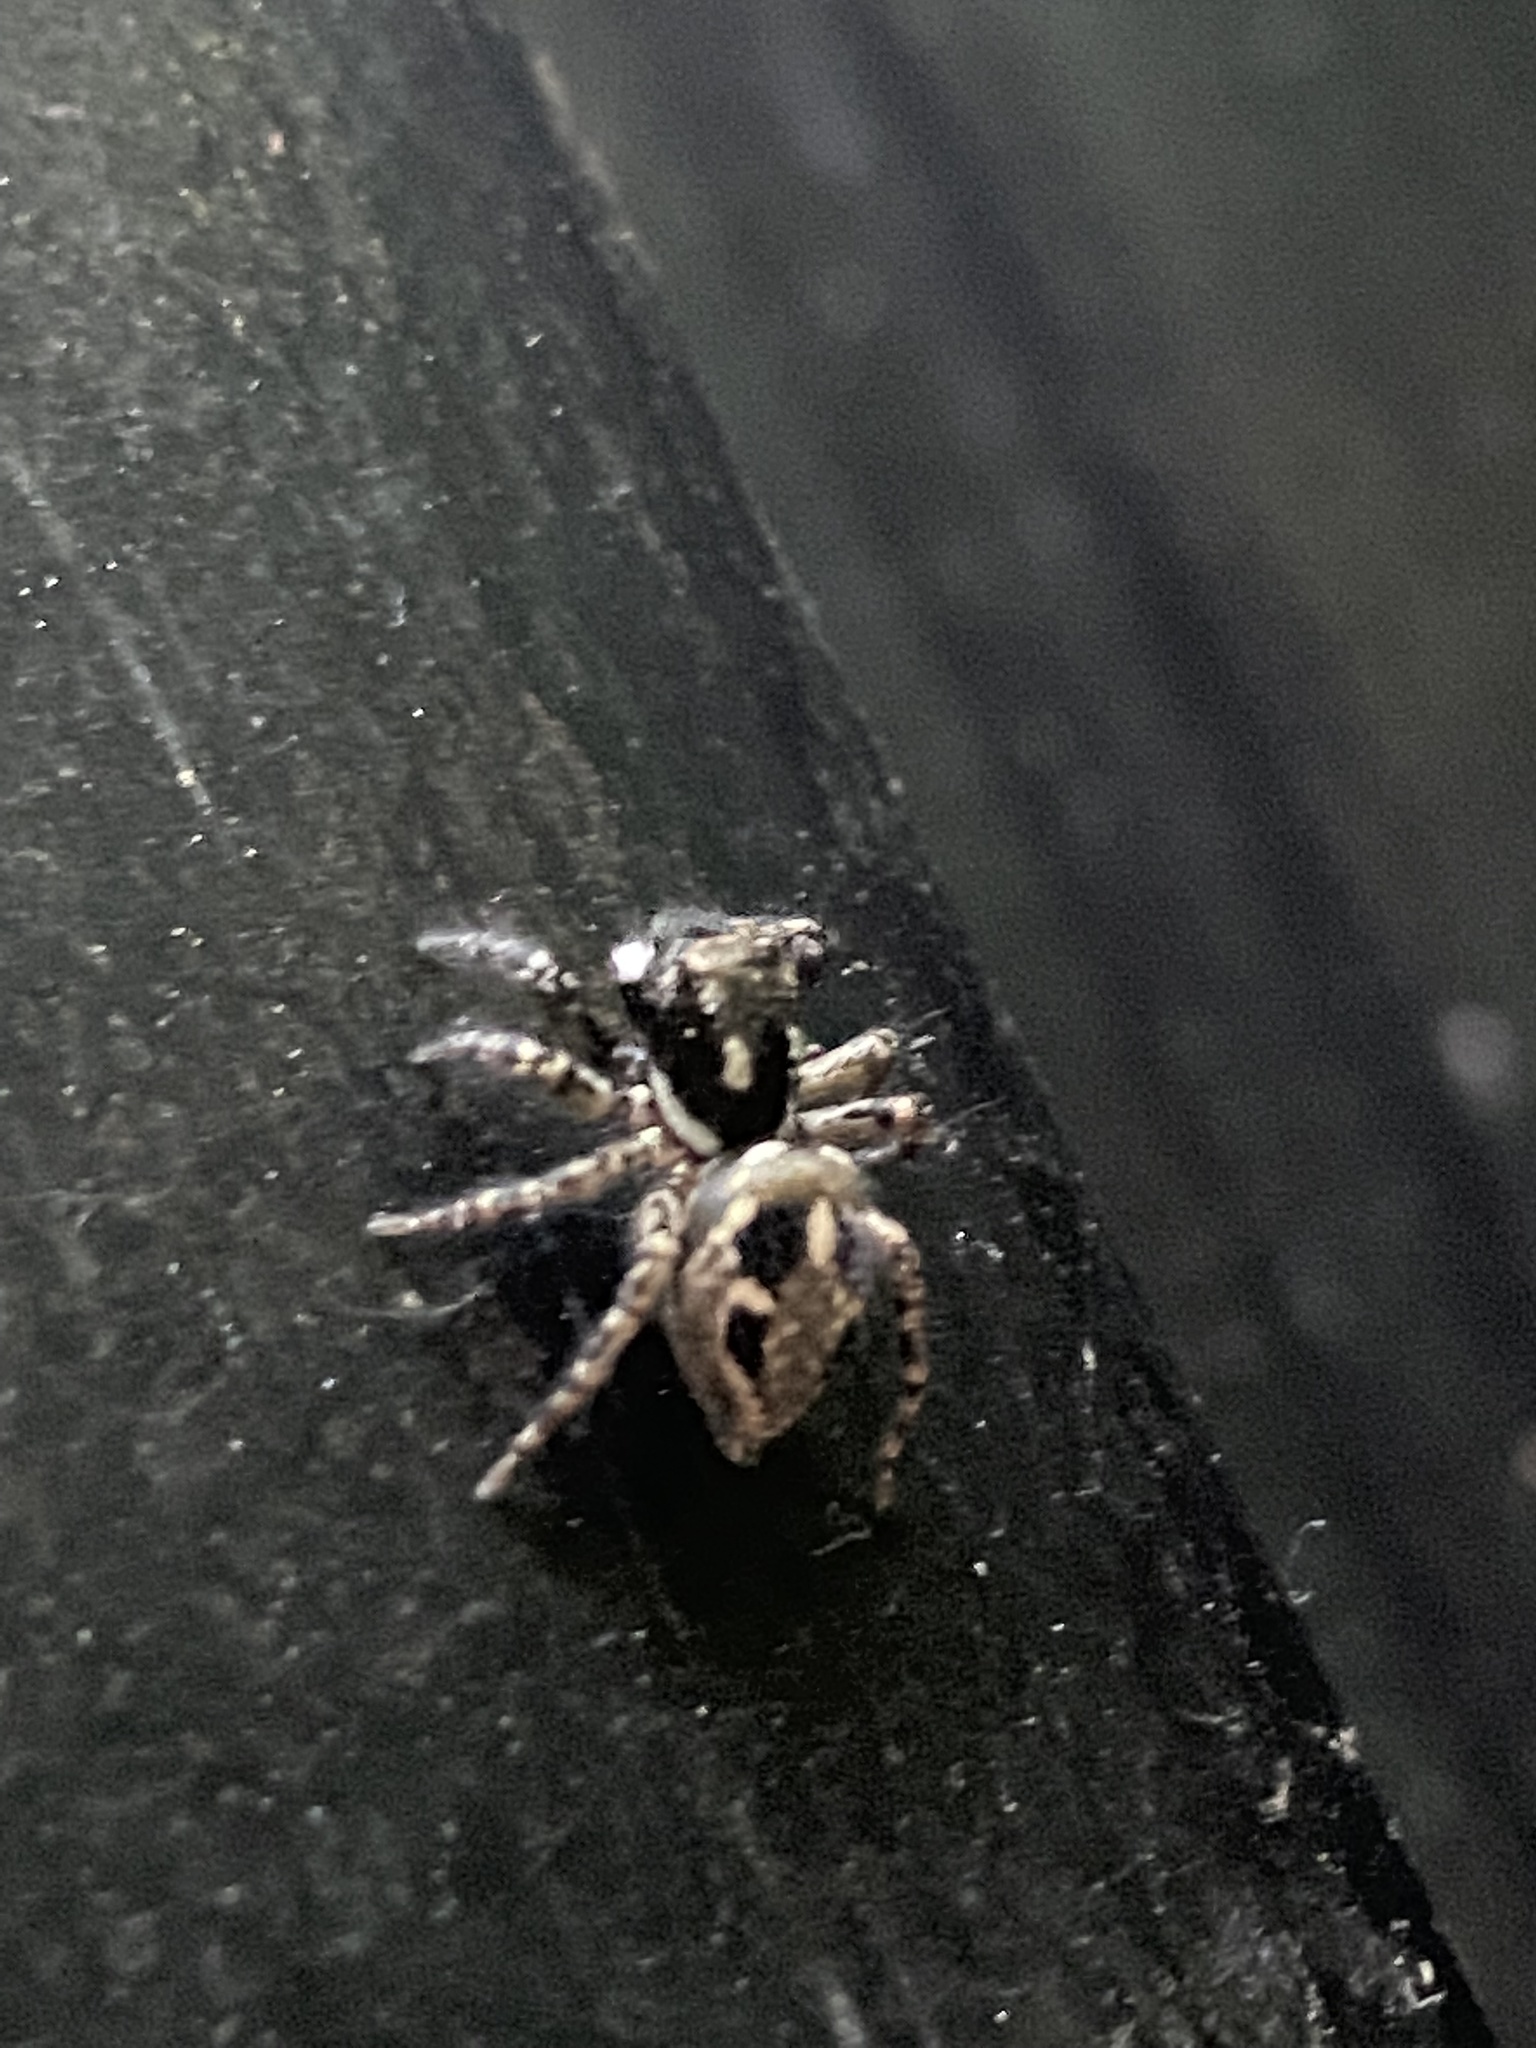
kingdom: Animalia
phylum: Arthropoda
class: Arachnida
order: Araneae
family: Salticidae
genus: Anasaitis
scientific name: Anasaitis canosa
